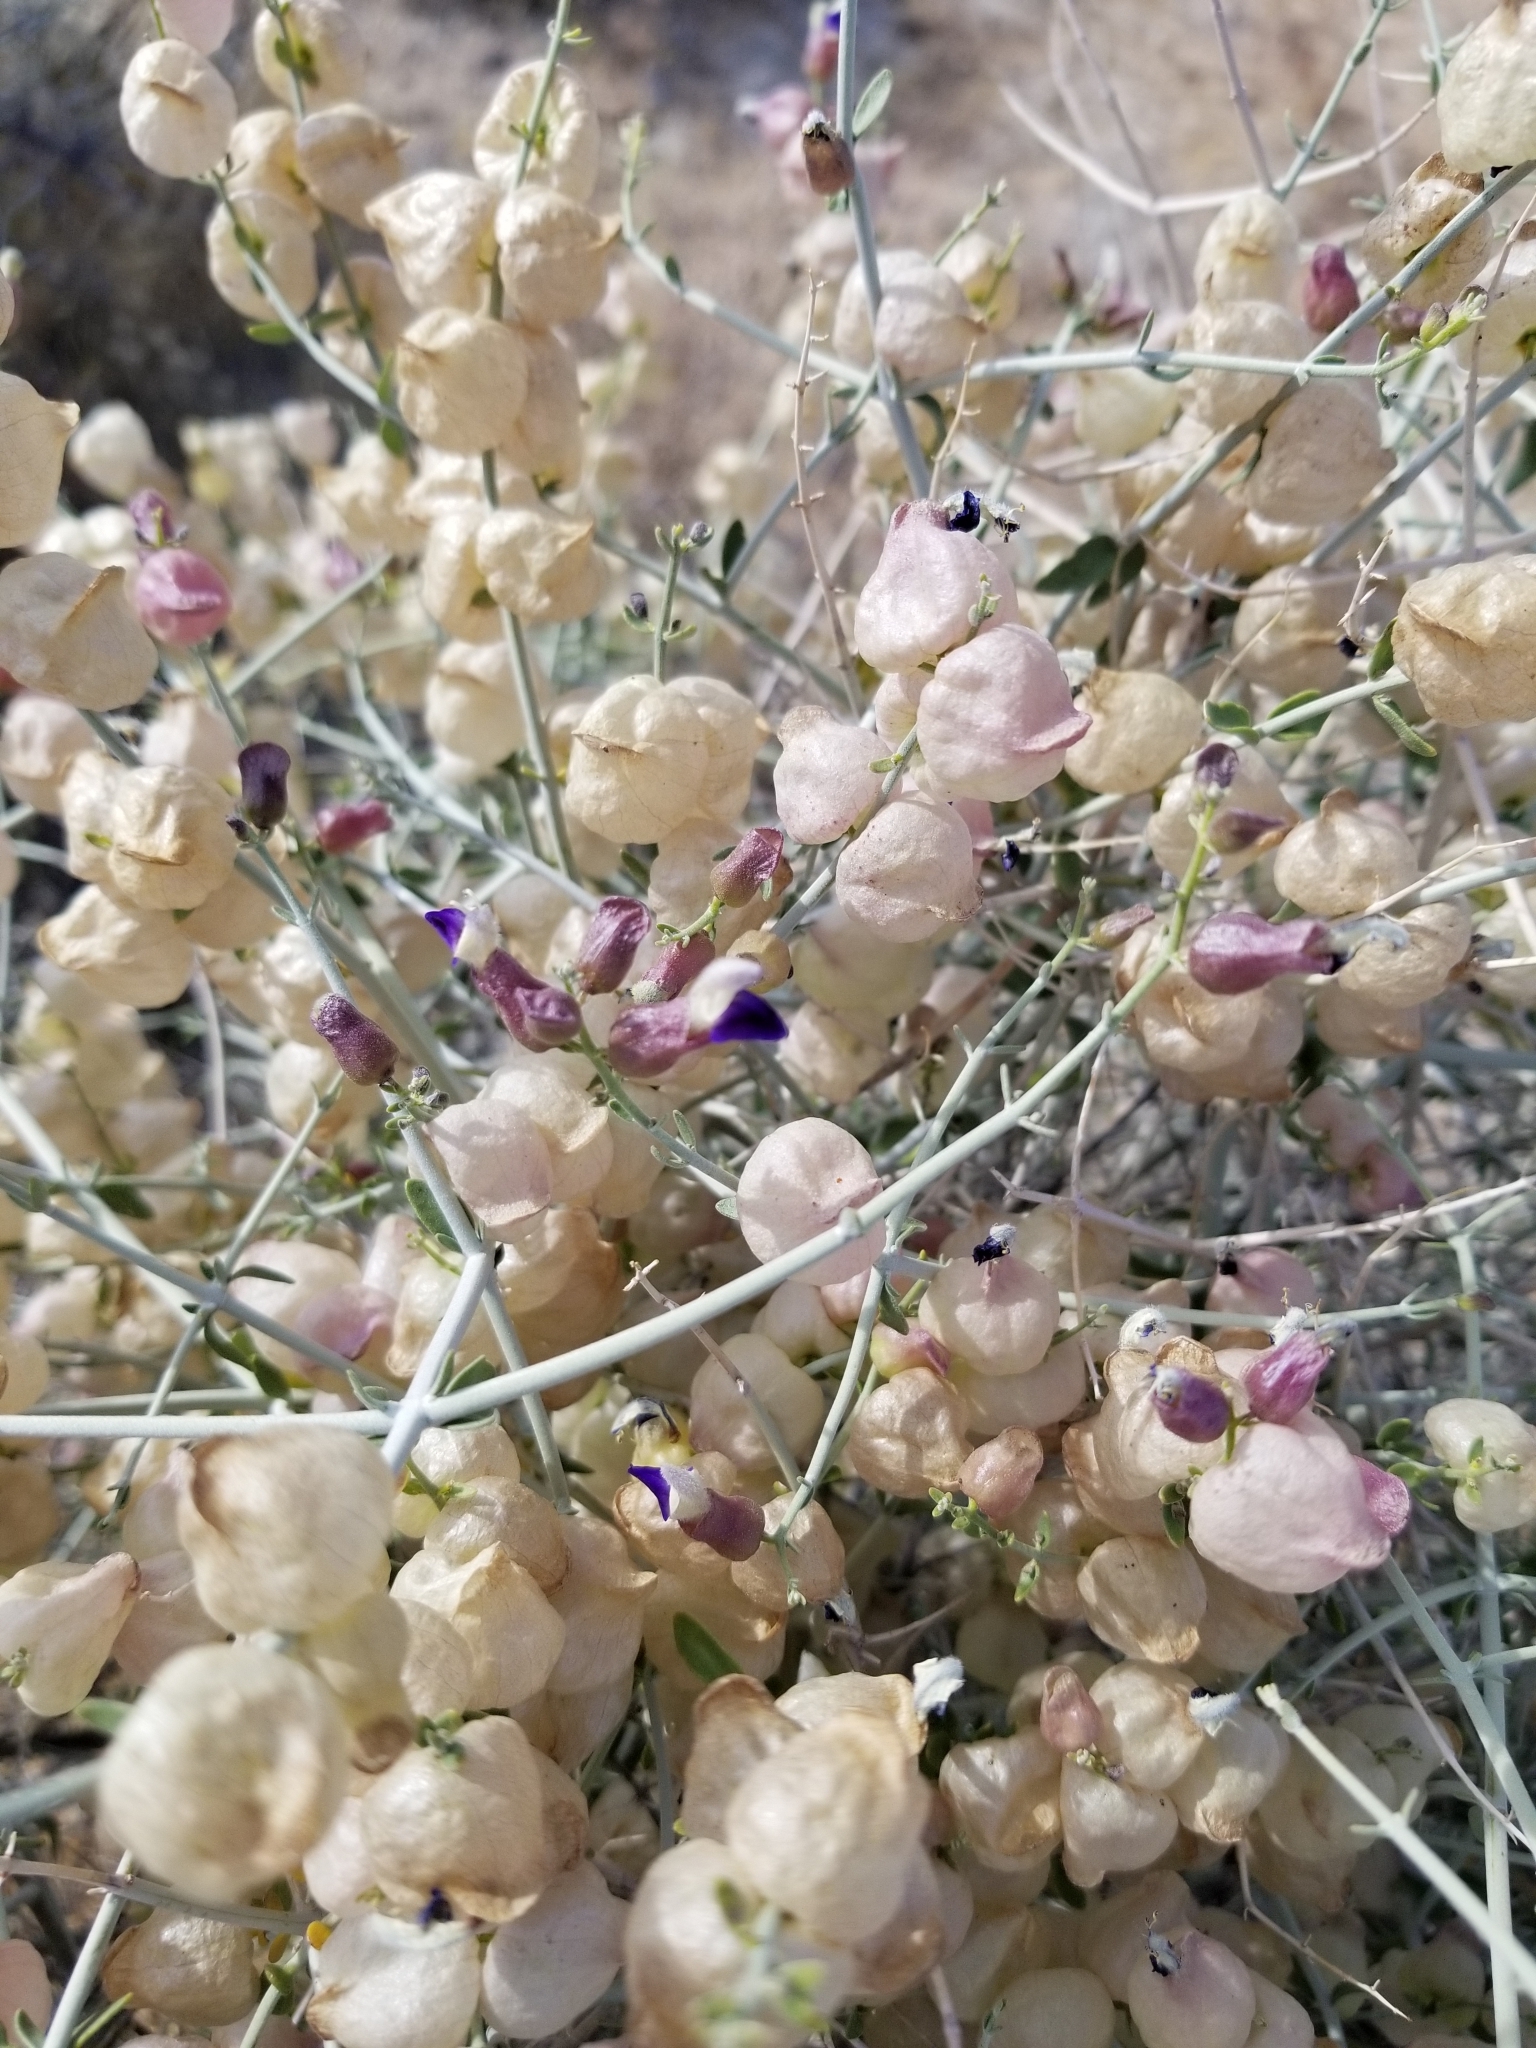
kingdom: Plantae
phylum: Tracheophyta
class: Magnoliopsida
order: Lamiales
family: Lamiaceae
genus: Scutellaria
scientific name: Scutellaria mexicana
